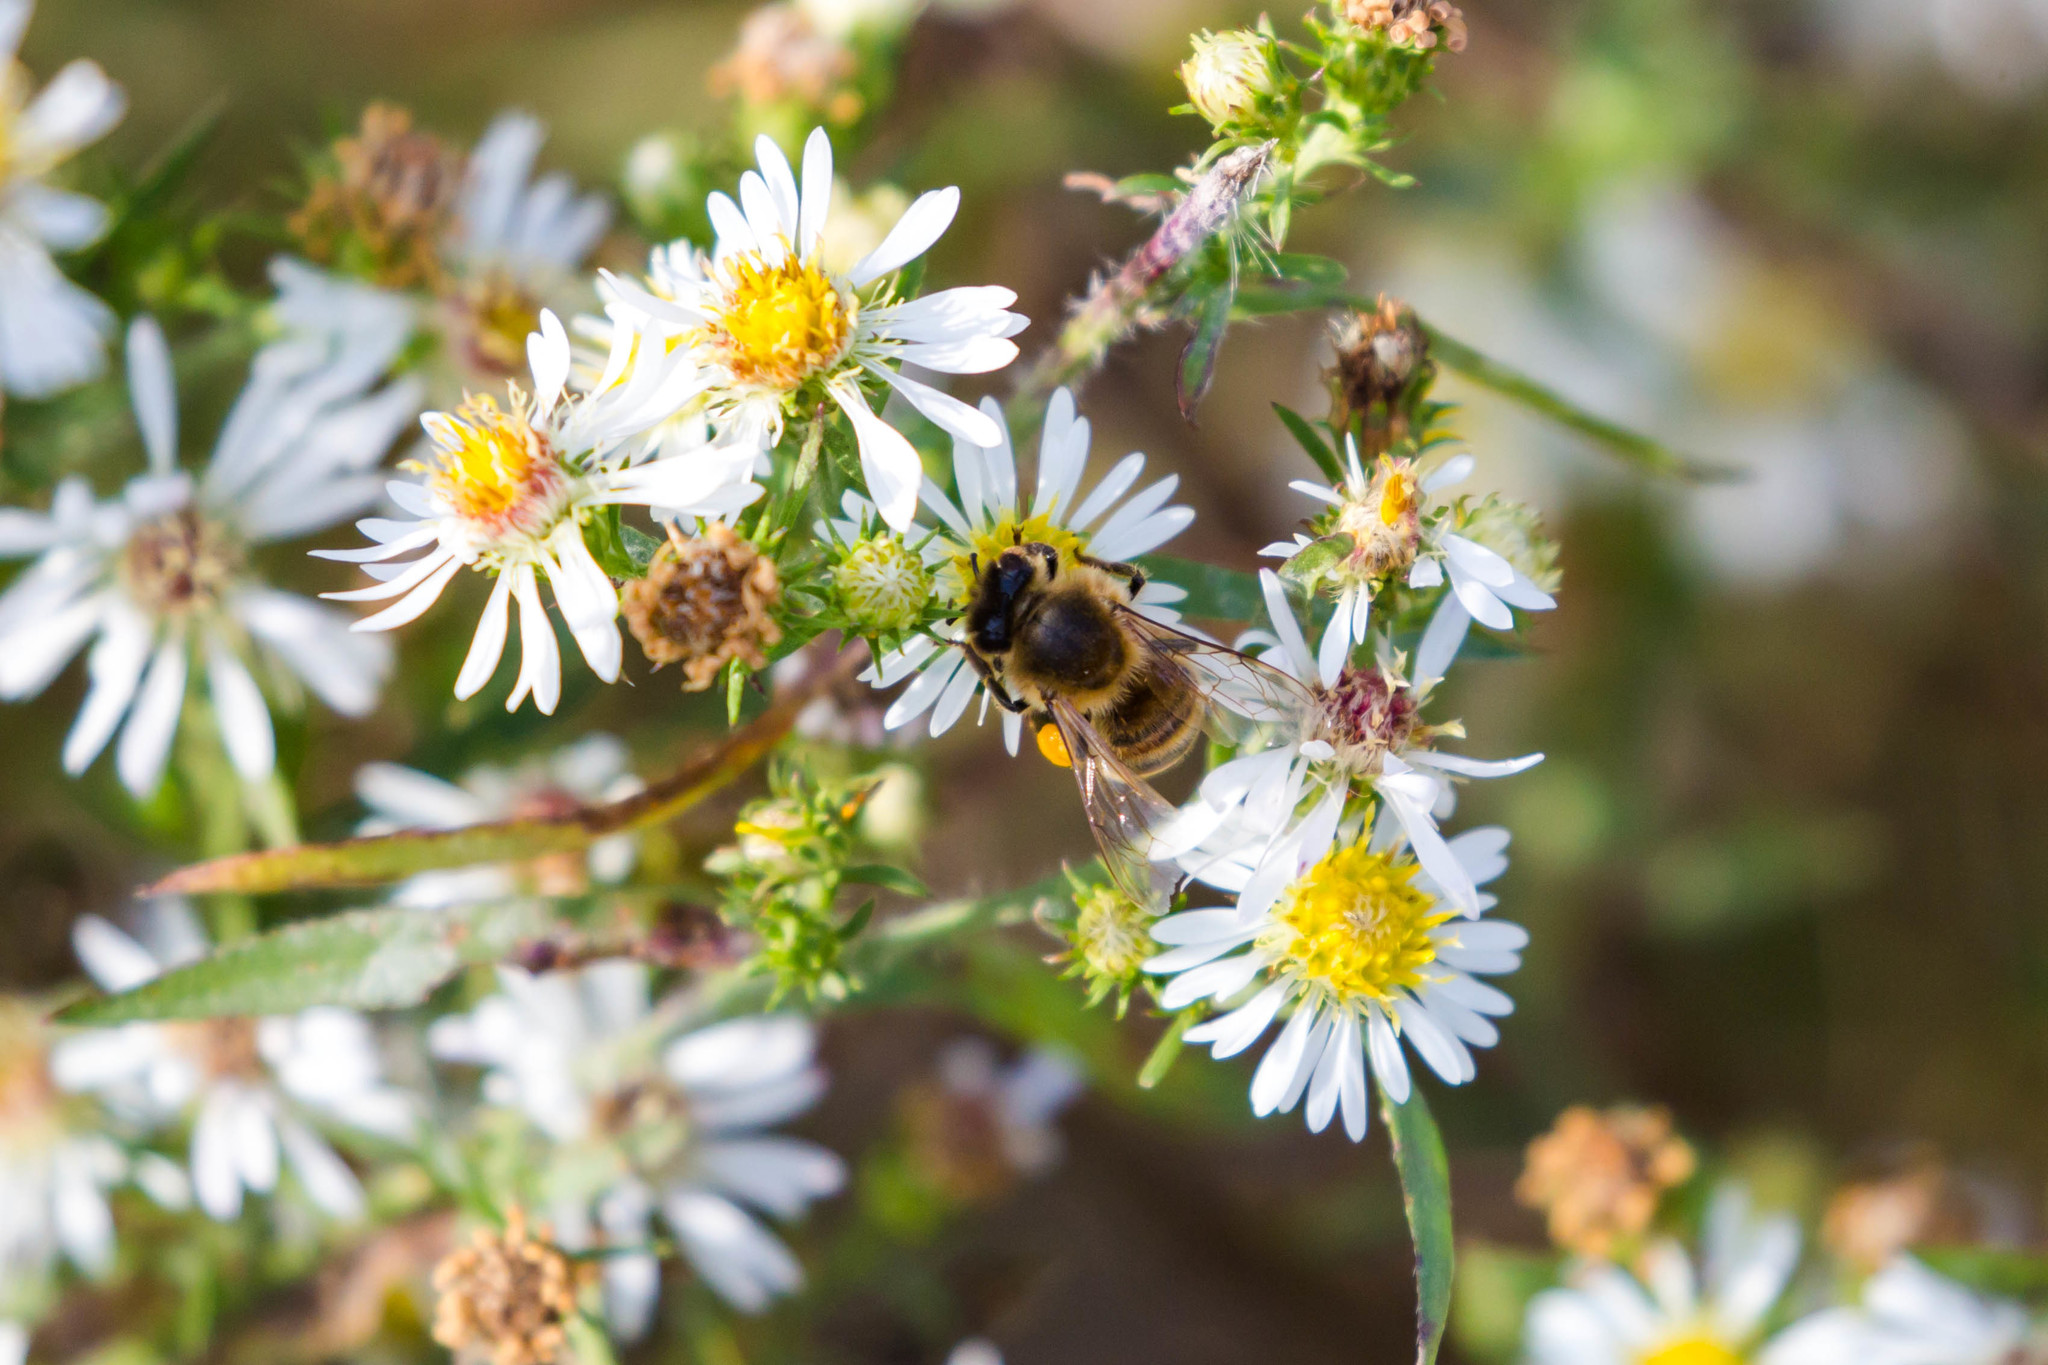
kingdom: Animalia
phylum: Arthropoda
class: Insecta
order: Hymenoptera
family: Apidae
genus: Apis
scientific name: Apis mellifera
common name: Honey bee
